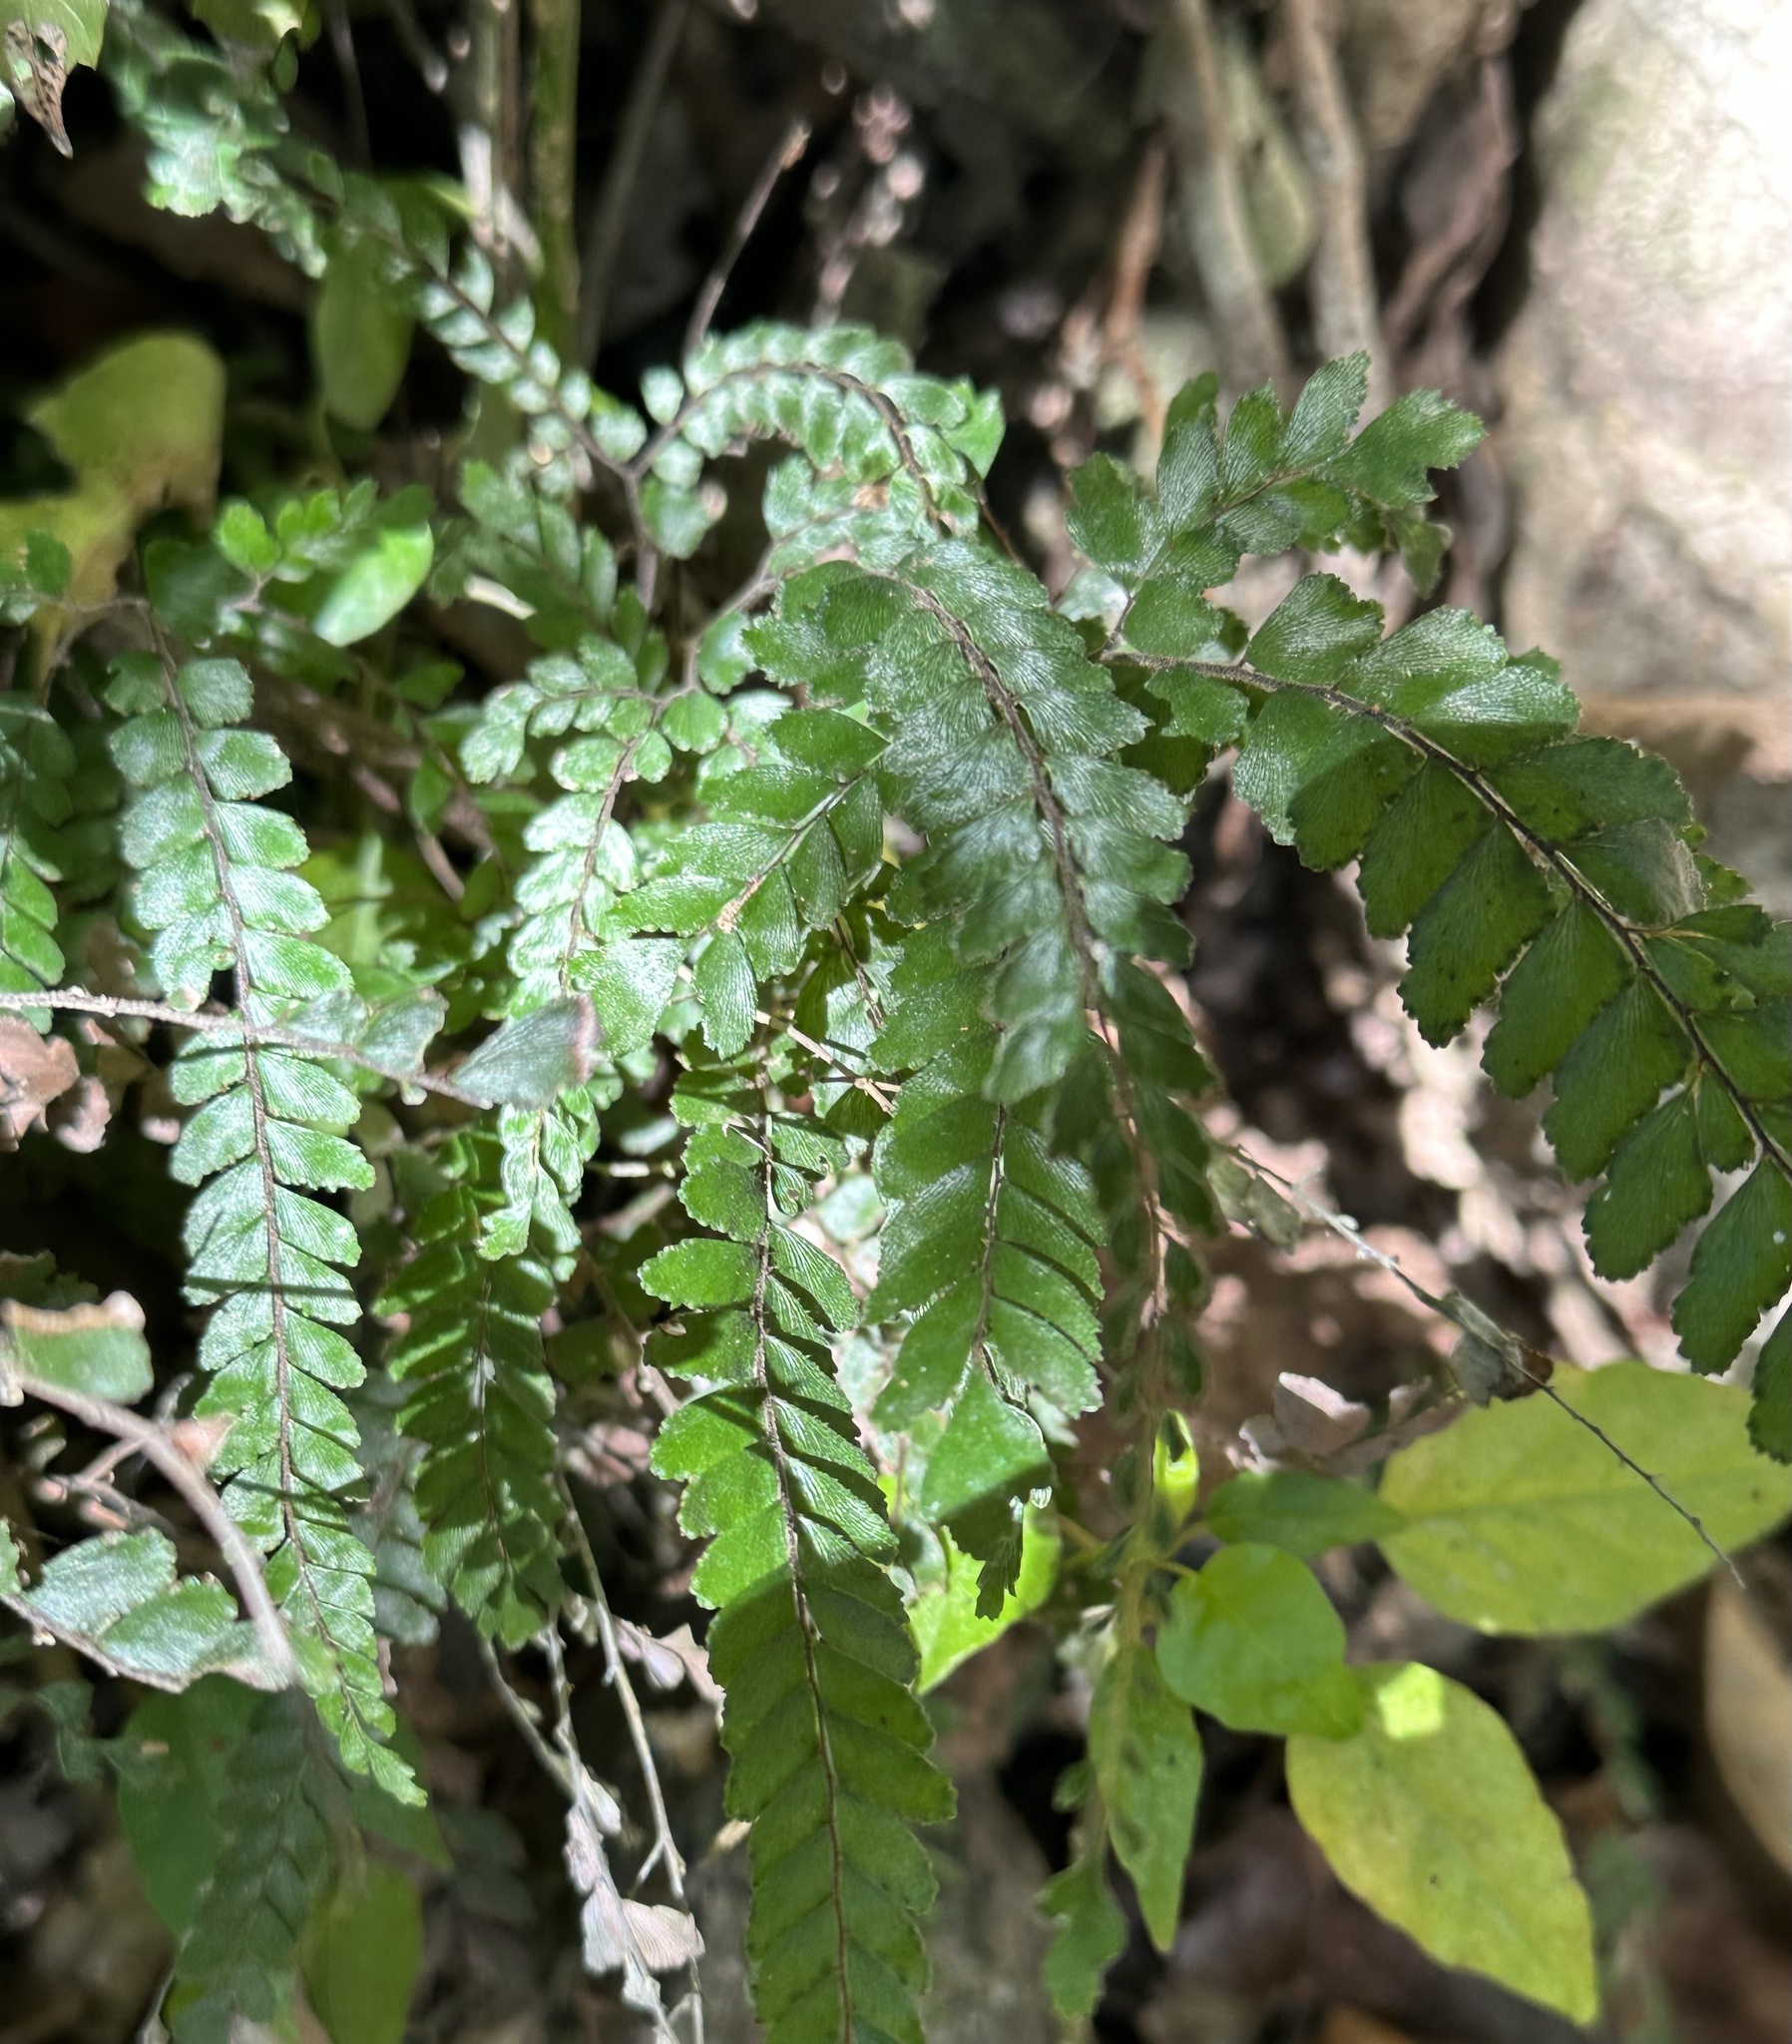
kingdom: Plantae
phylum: Tracheophyta
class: Polypodiopsida
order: Polypodiales
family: Pteridaceae
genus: Adiantum
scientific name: Adiantum hispidulum
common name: Rough maidenhair
